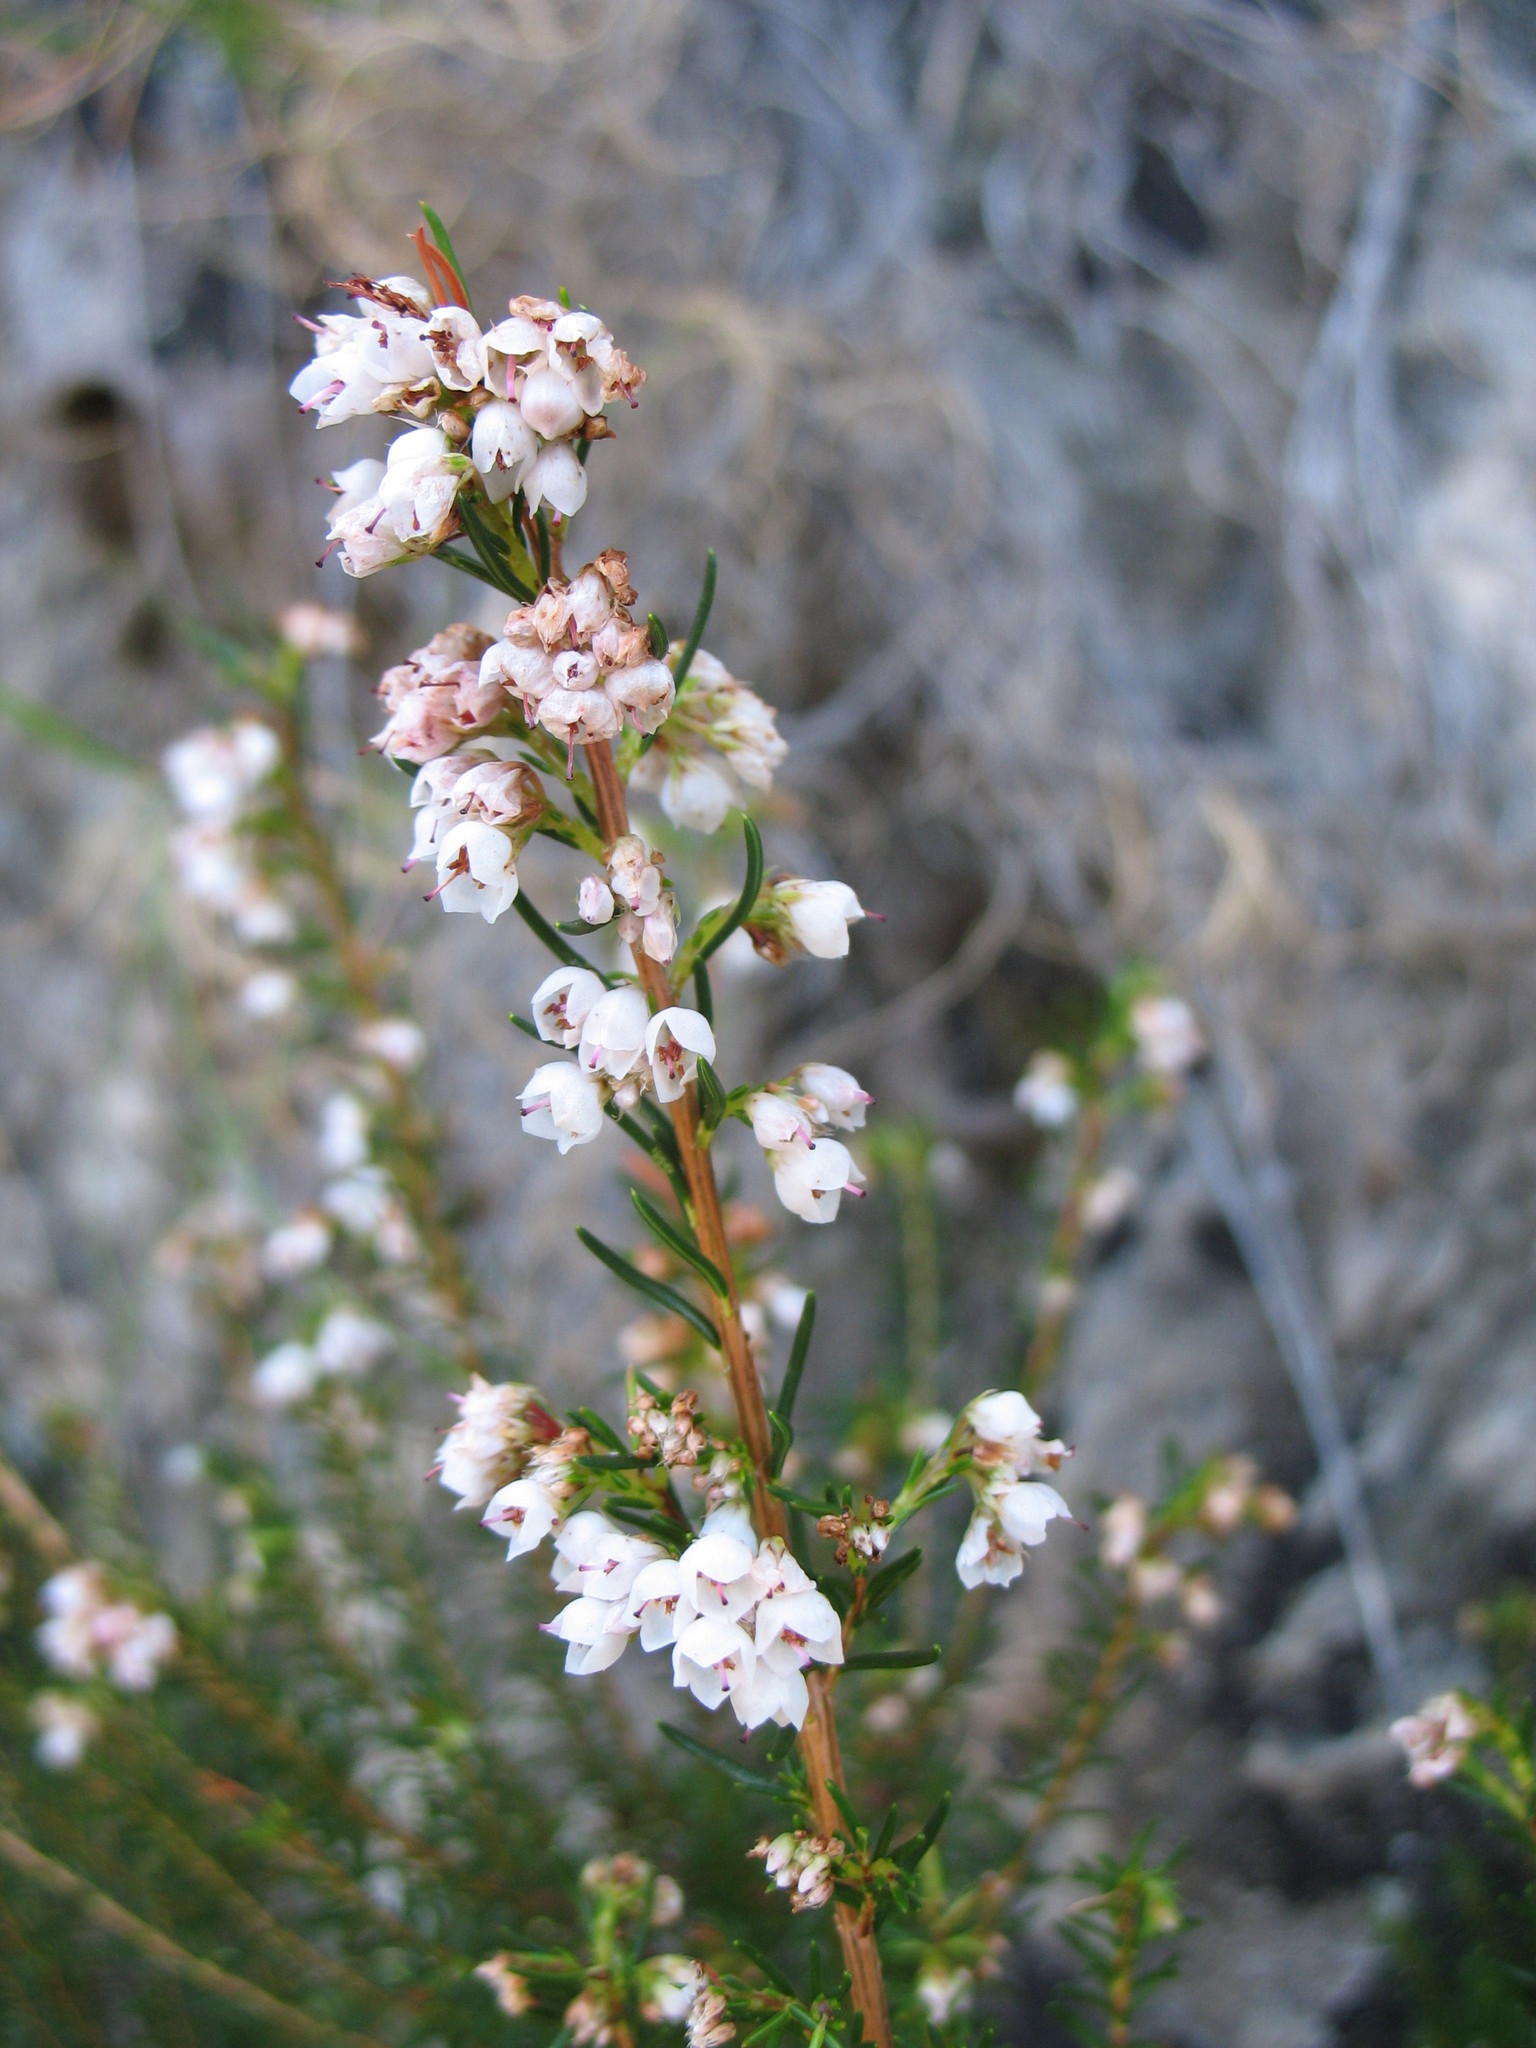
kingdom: Plantae
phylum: Tracheophyta
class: Magnoliopsida
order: Ericales
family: Ericaceae
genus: Erica
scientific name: Erica oxysepala
